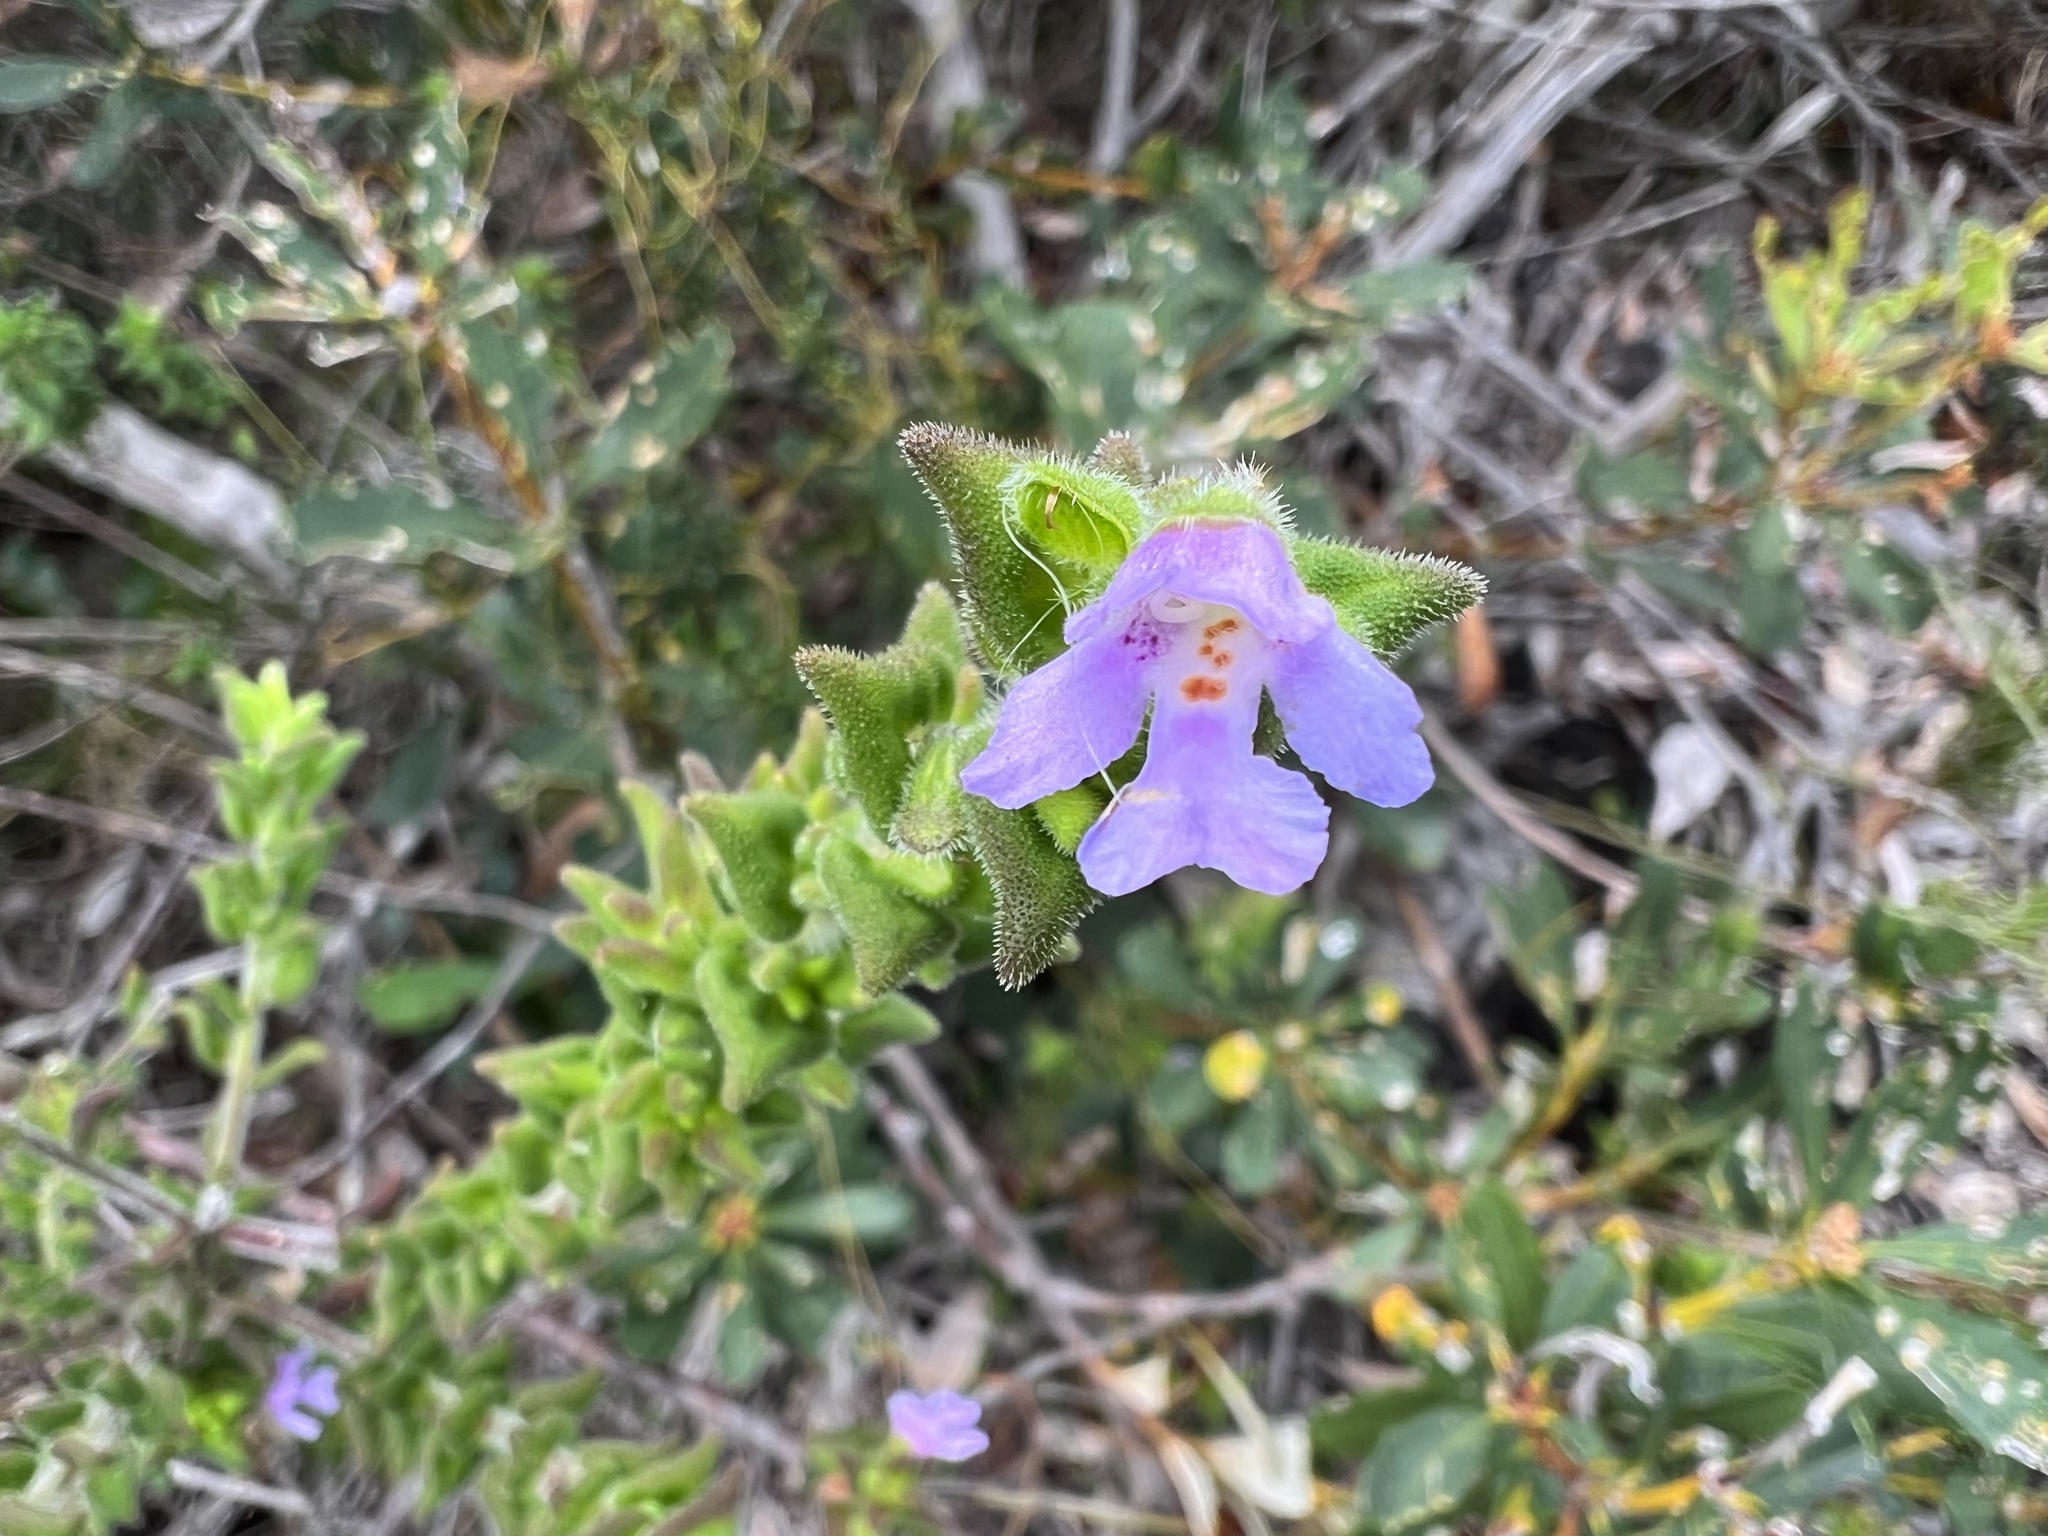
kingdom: Plantae
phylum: Tracheophyta
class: Magnoliopsida
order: Lamiales
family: Lamiaceae
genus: Prostanthera
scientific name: Prostanthera densa
